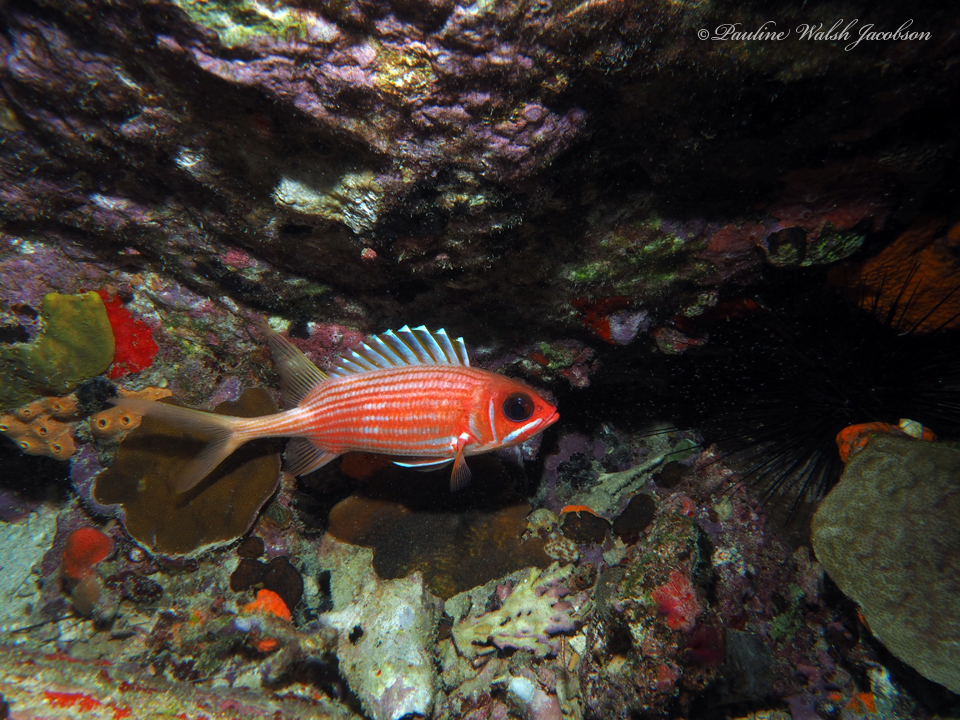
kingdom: Animalia
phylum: Chordata
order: Beryciformes
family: Holocentridae
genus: Holocentrus
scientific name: Holocentrus rufus
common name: Longspine squirrelfish
